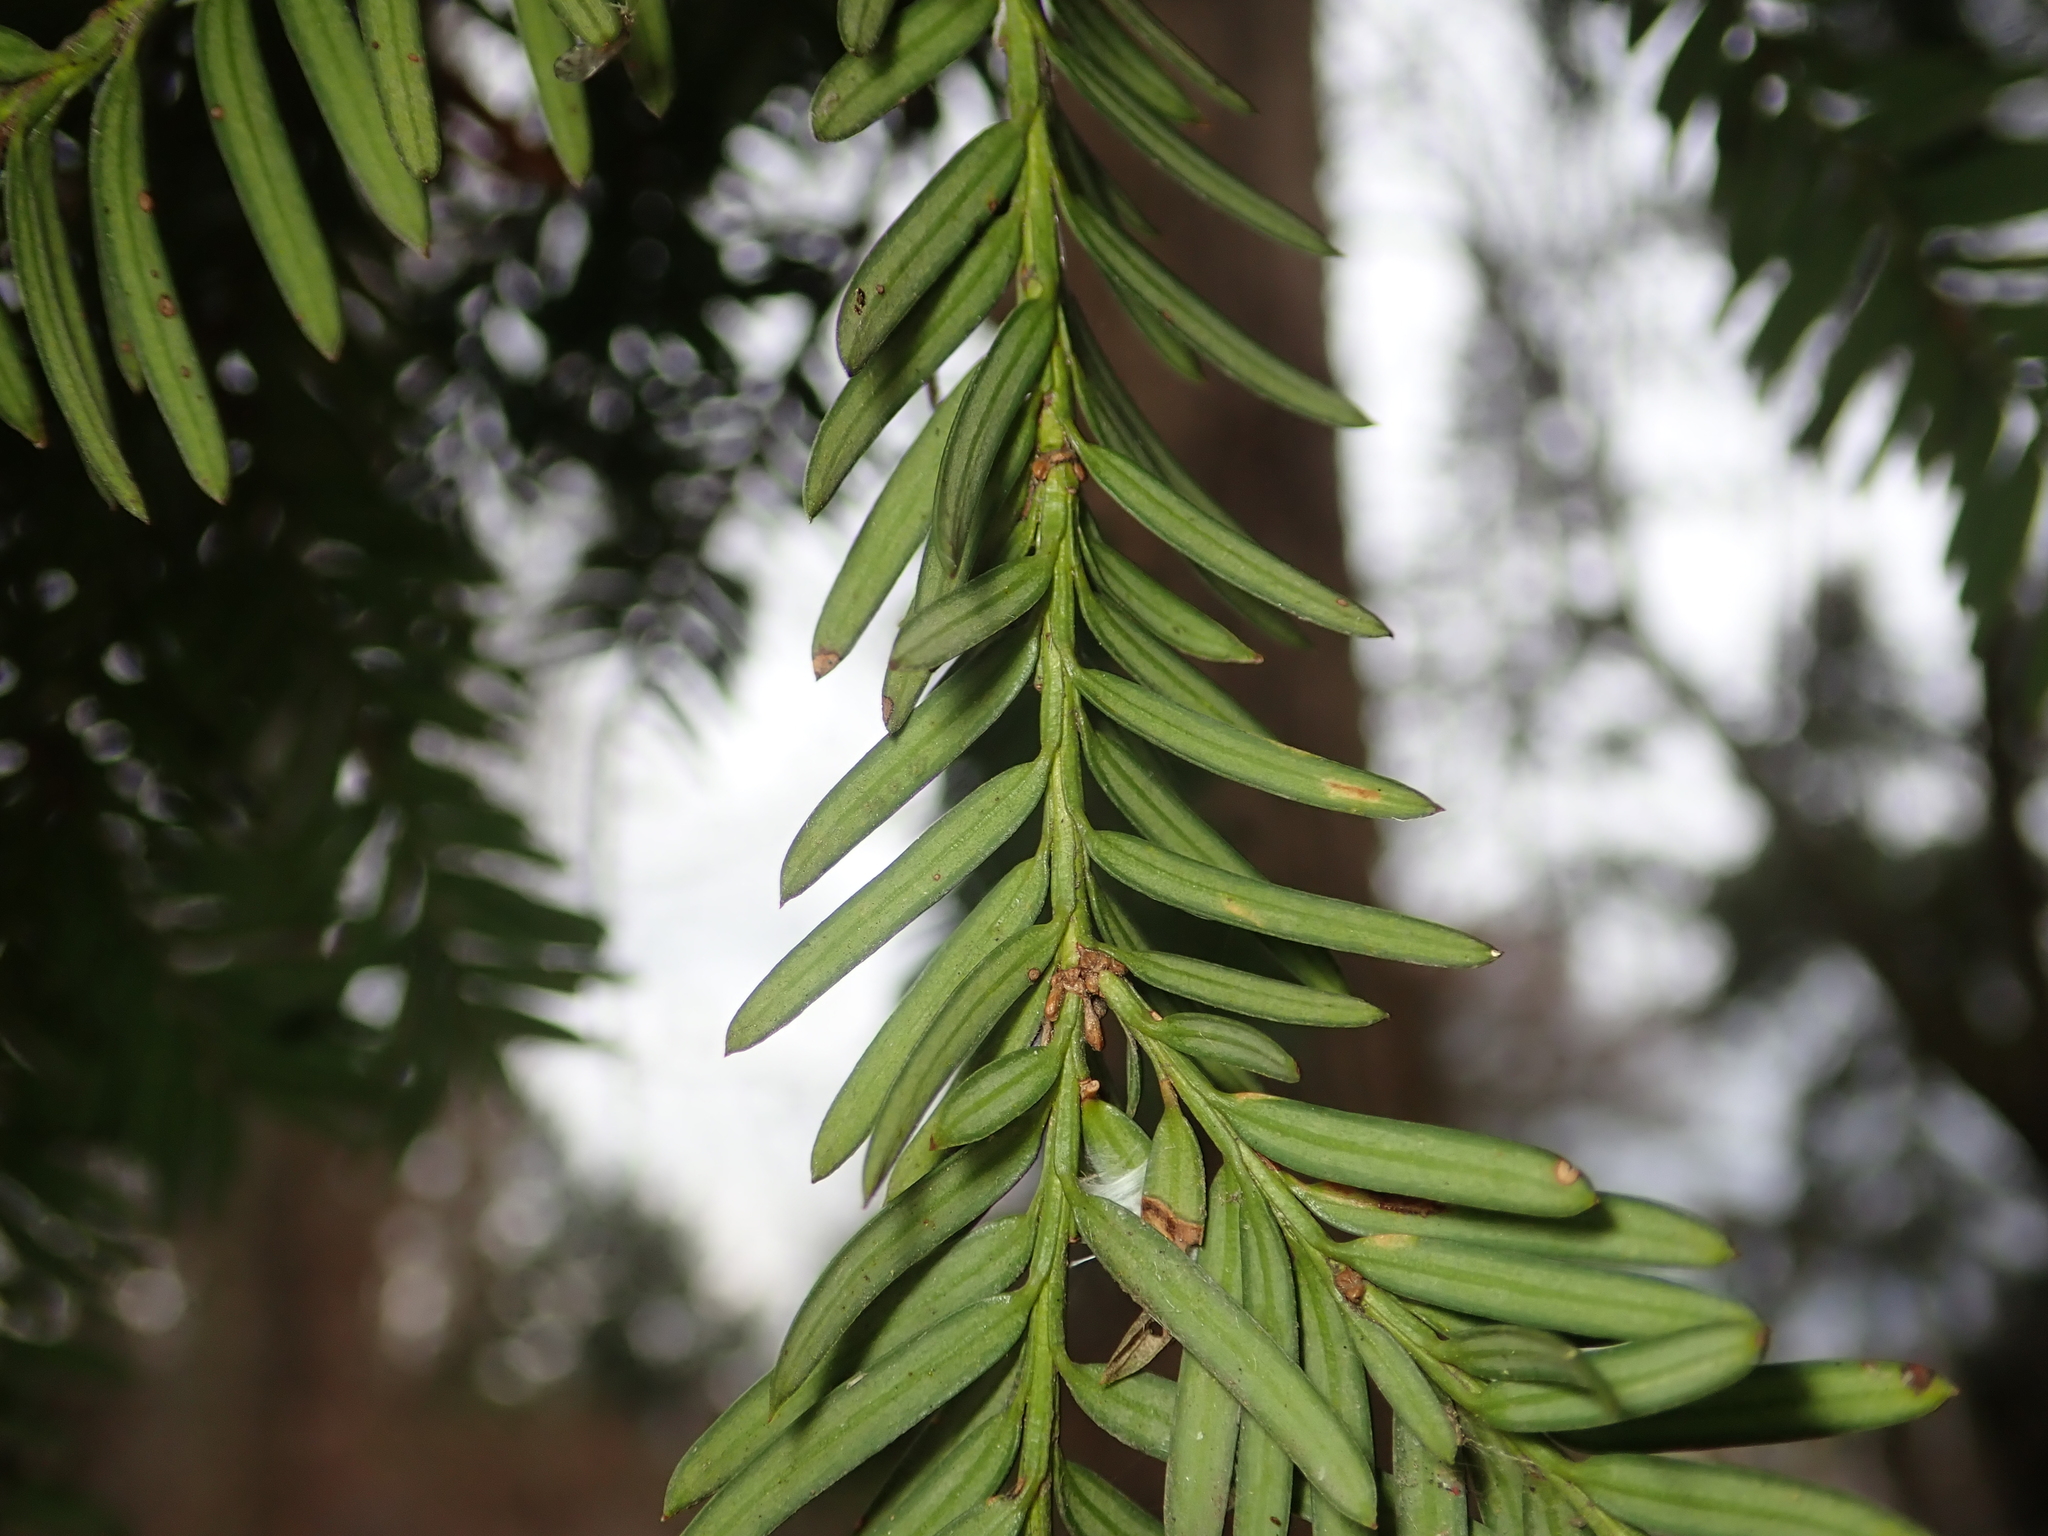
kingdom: Plantae
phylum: Tracheophyta
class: Pinopsida
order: Pinales
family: Taxaceae
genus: Taxus
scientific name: Taxus baccata
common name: Yew
